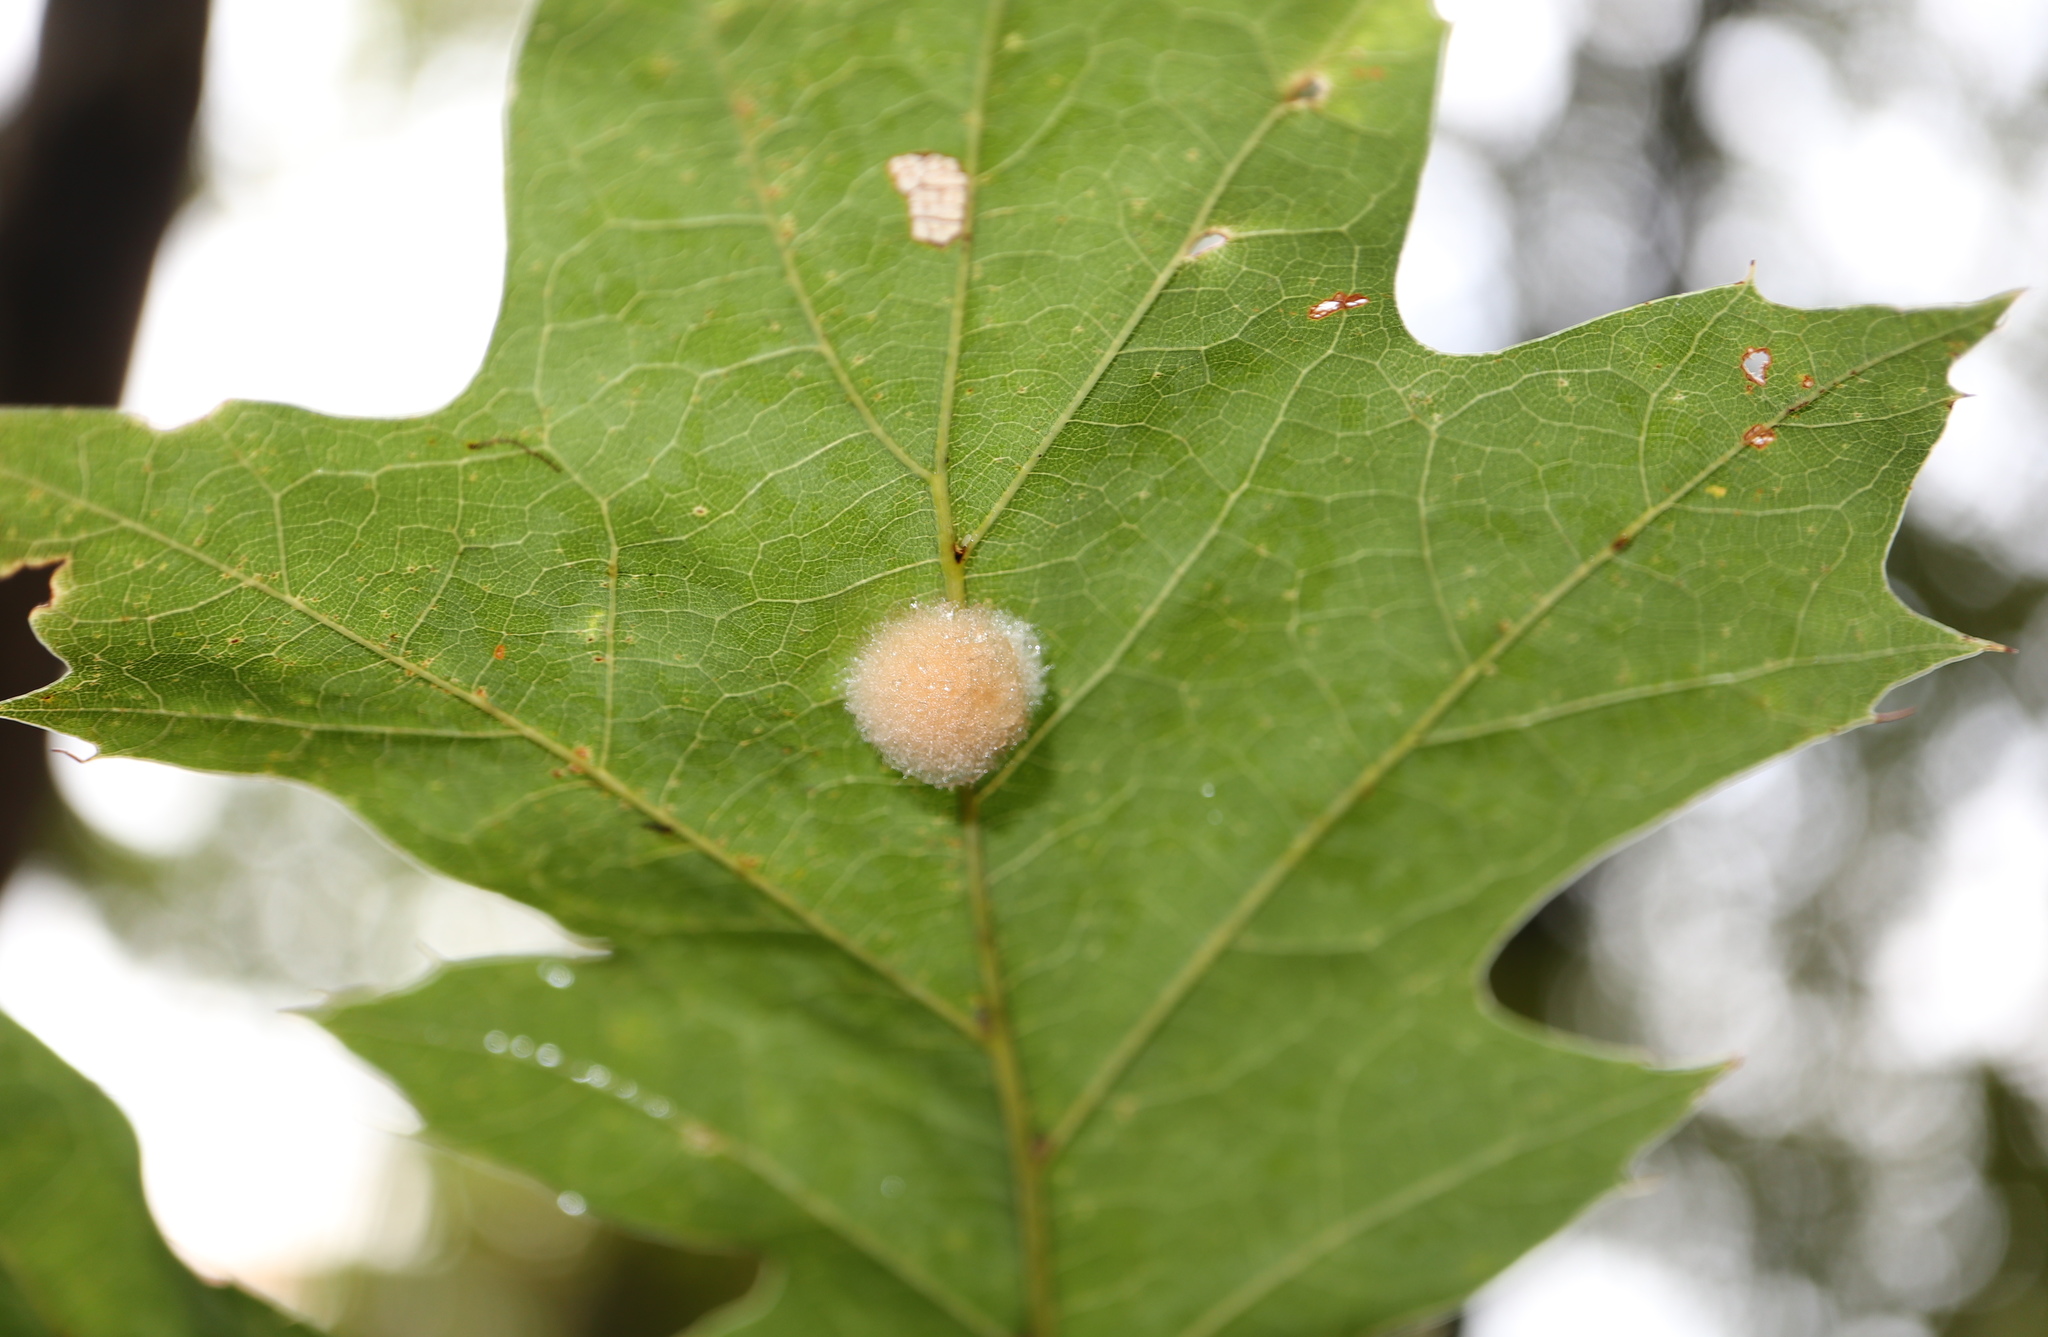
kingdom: Animalia
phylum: Arthropoda
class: Insecta
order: Hymenoptera
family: Cynipidae
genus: Callirhytis
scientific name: Callirhytis
